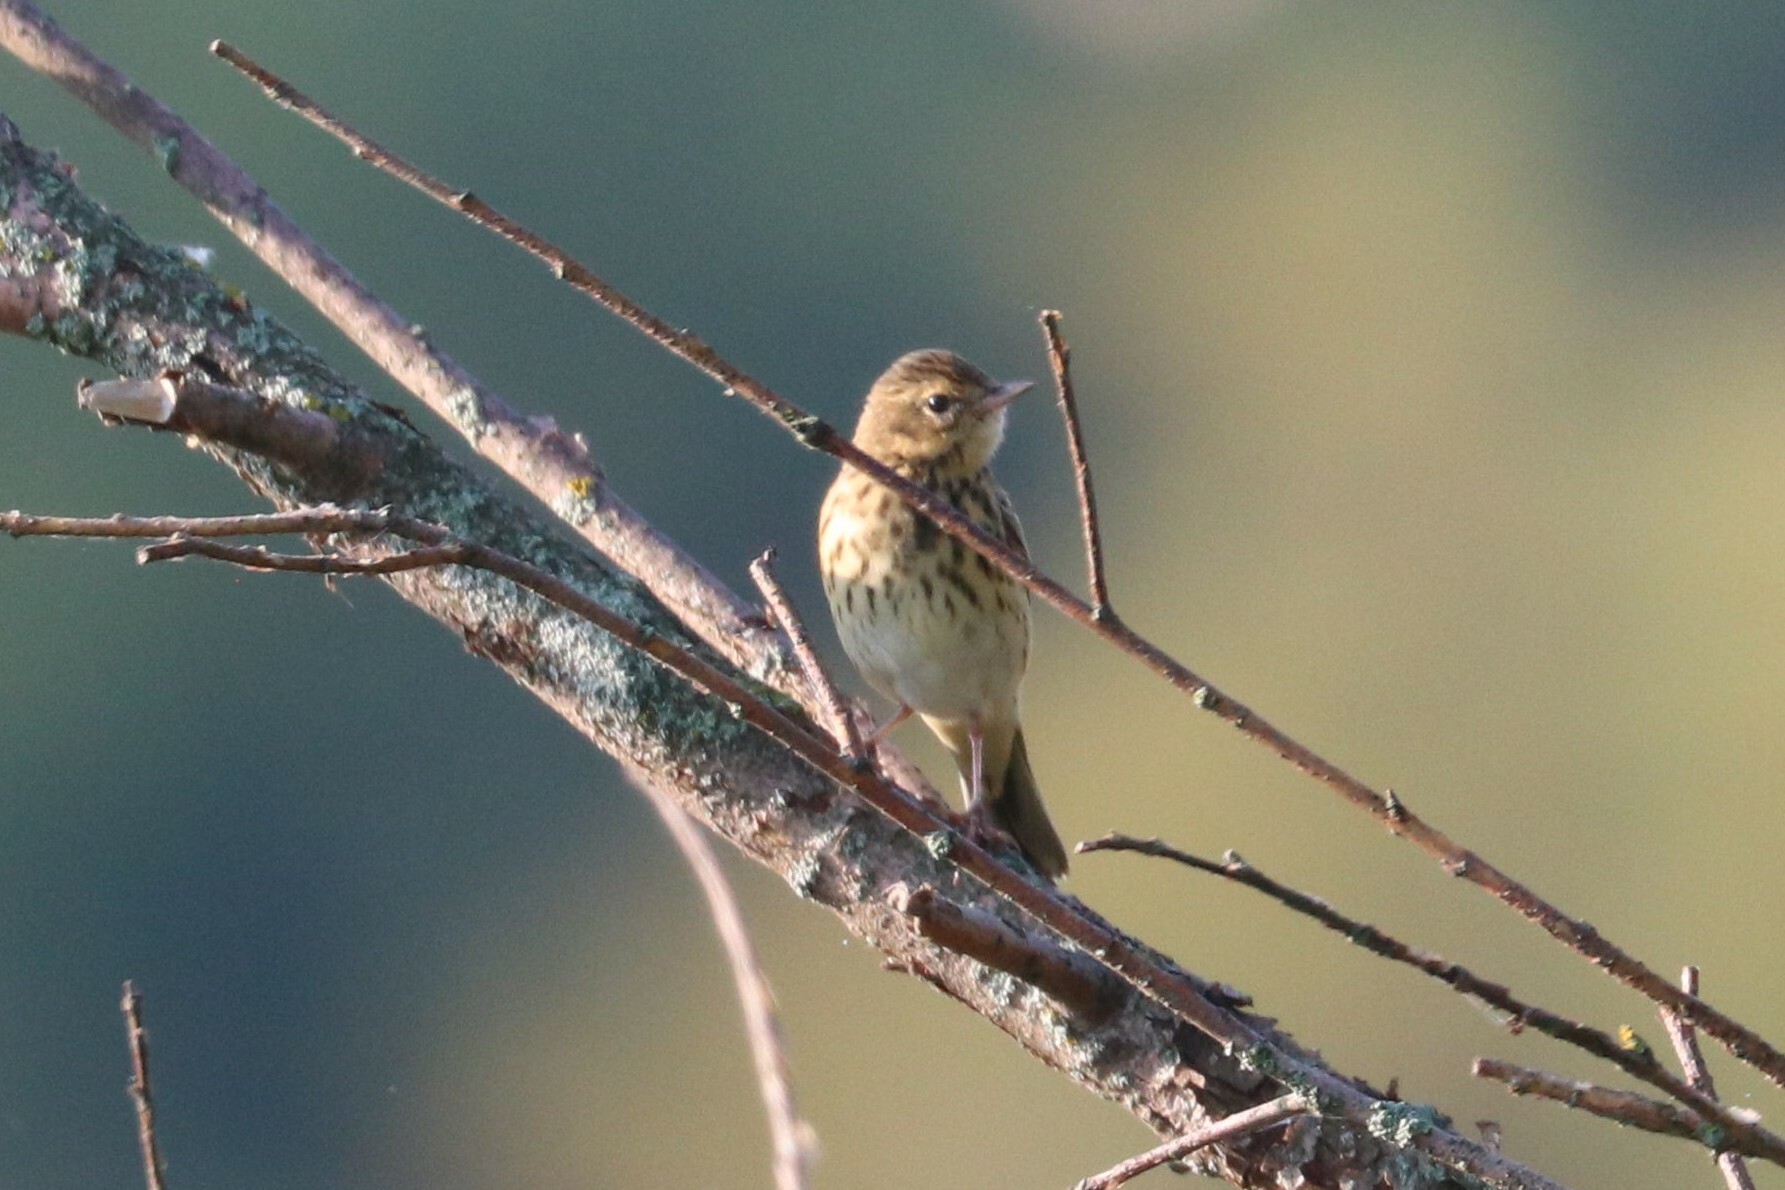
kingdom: Animalia
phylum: Chordata
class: Aves
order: Passeriformes
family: Motacillidae
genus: Anthus
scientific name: Anthus trivialis
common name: Tree pipit
